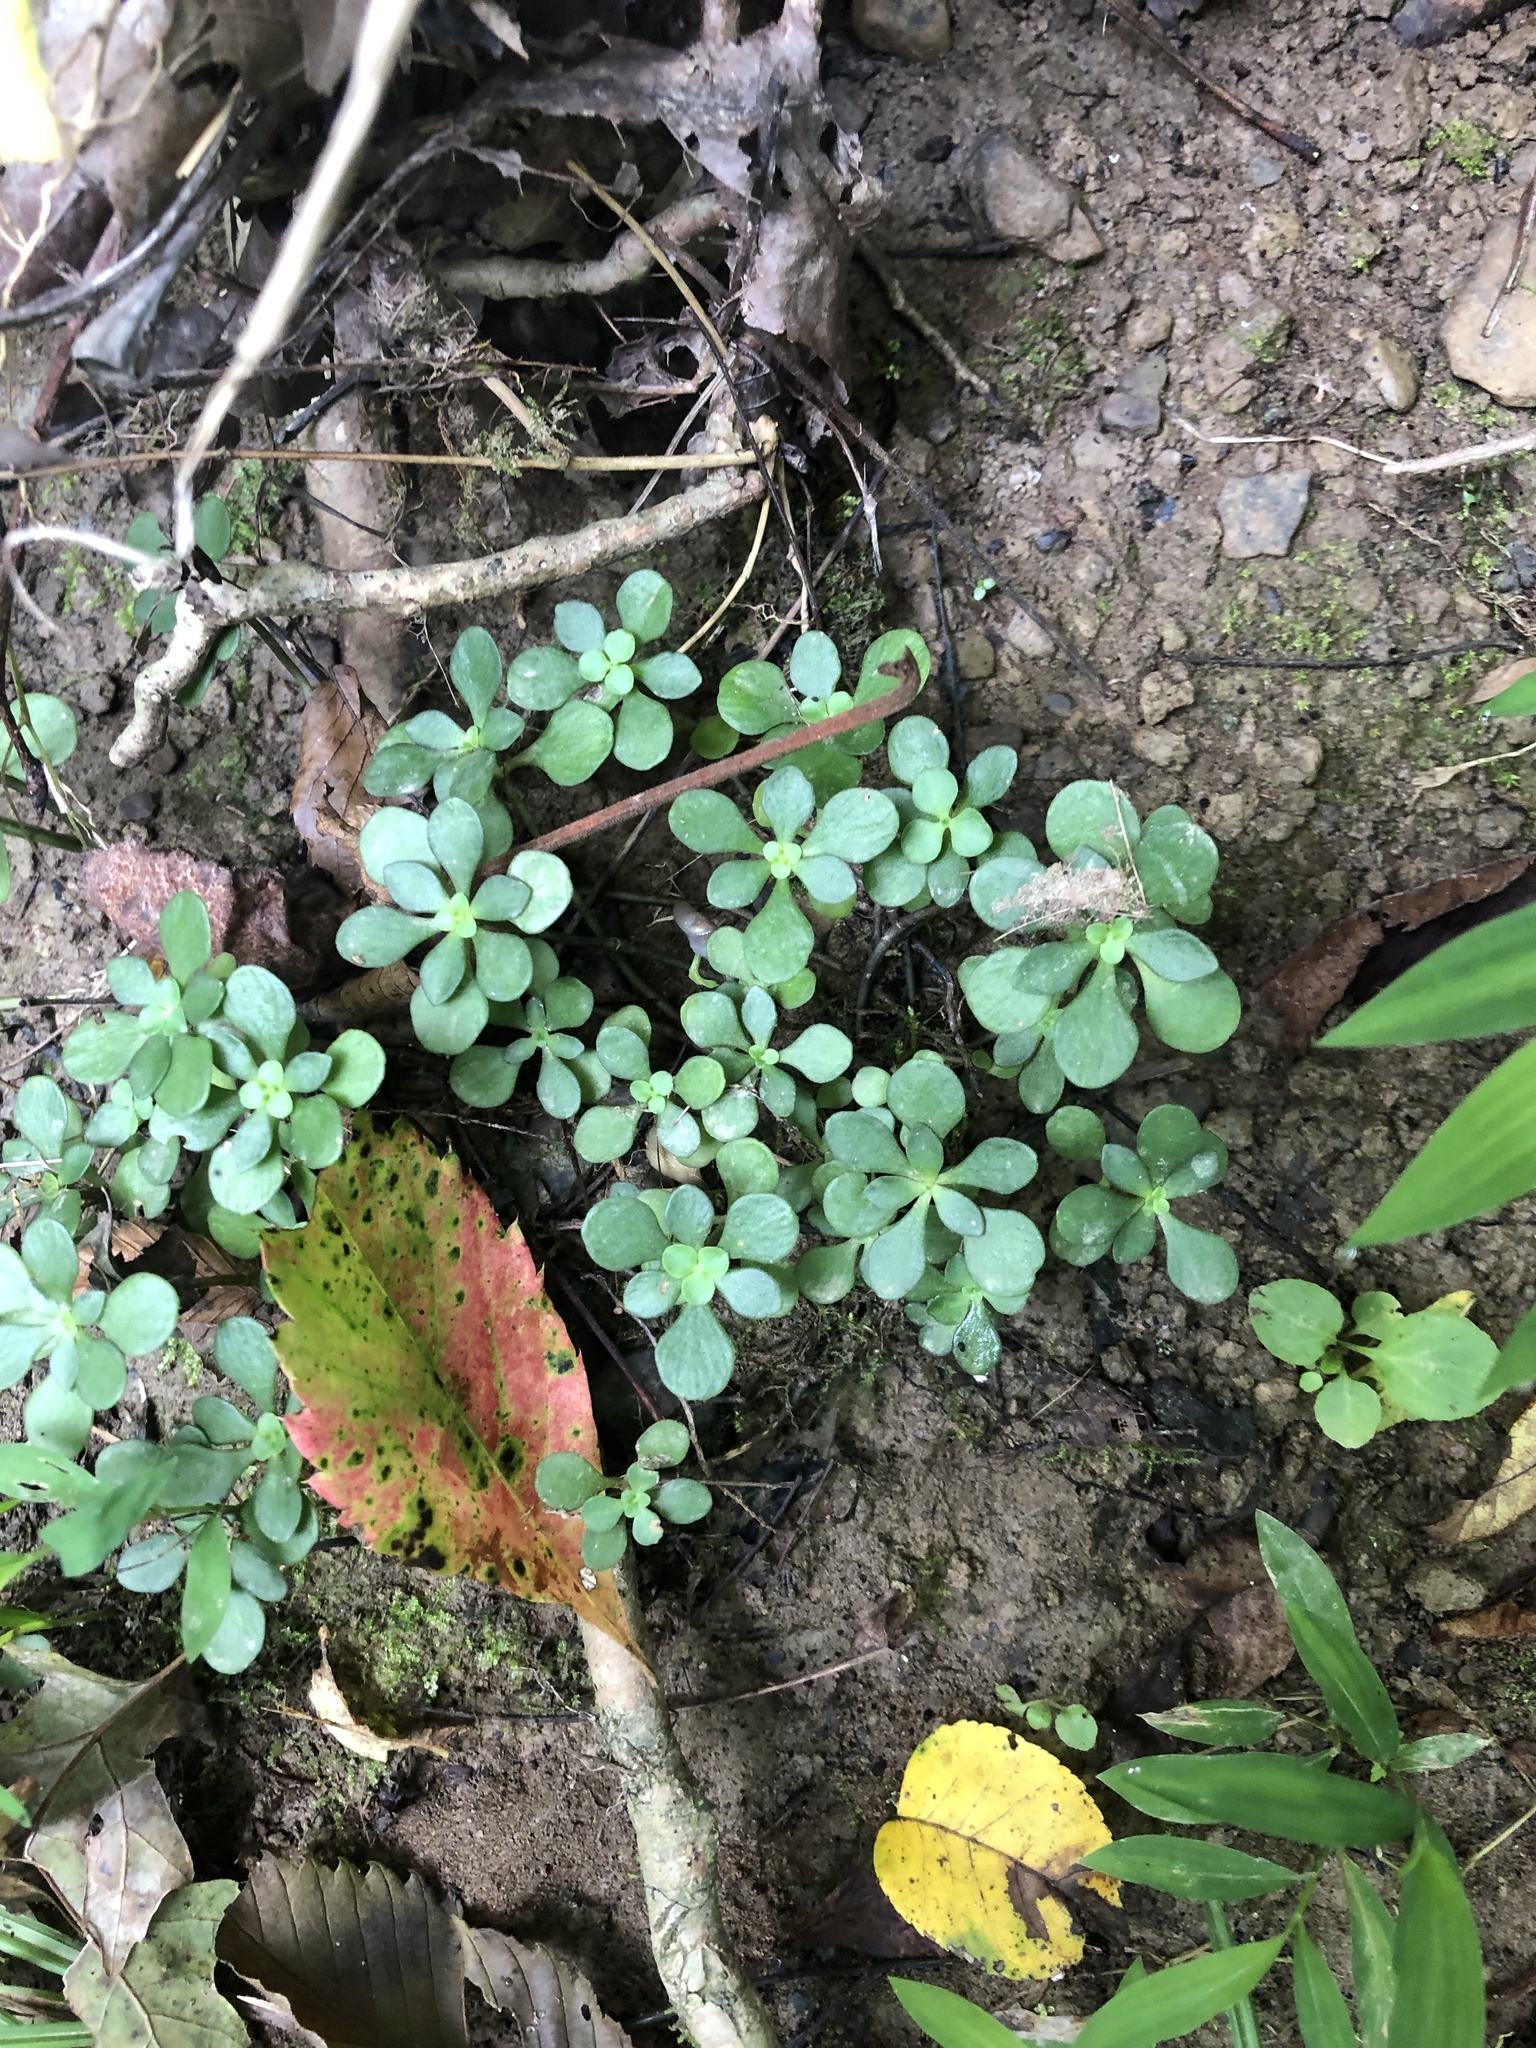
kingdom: Plantae
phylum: Tracheophyta
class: Magnoliopsida
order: Saxifragales
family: Crassulaceae
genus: Sedum
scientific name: Sedum ternatum
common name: Wild stonecrop
